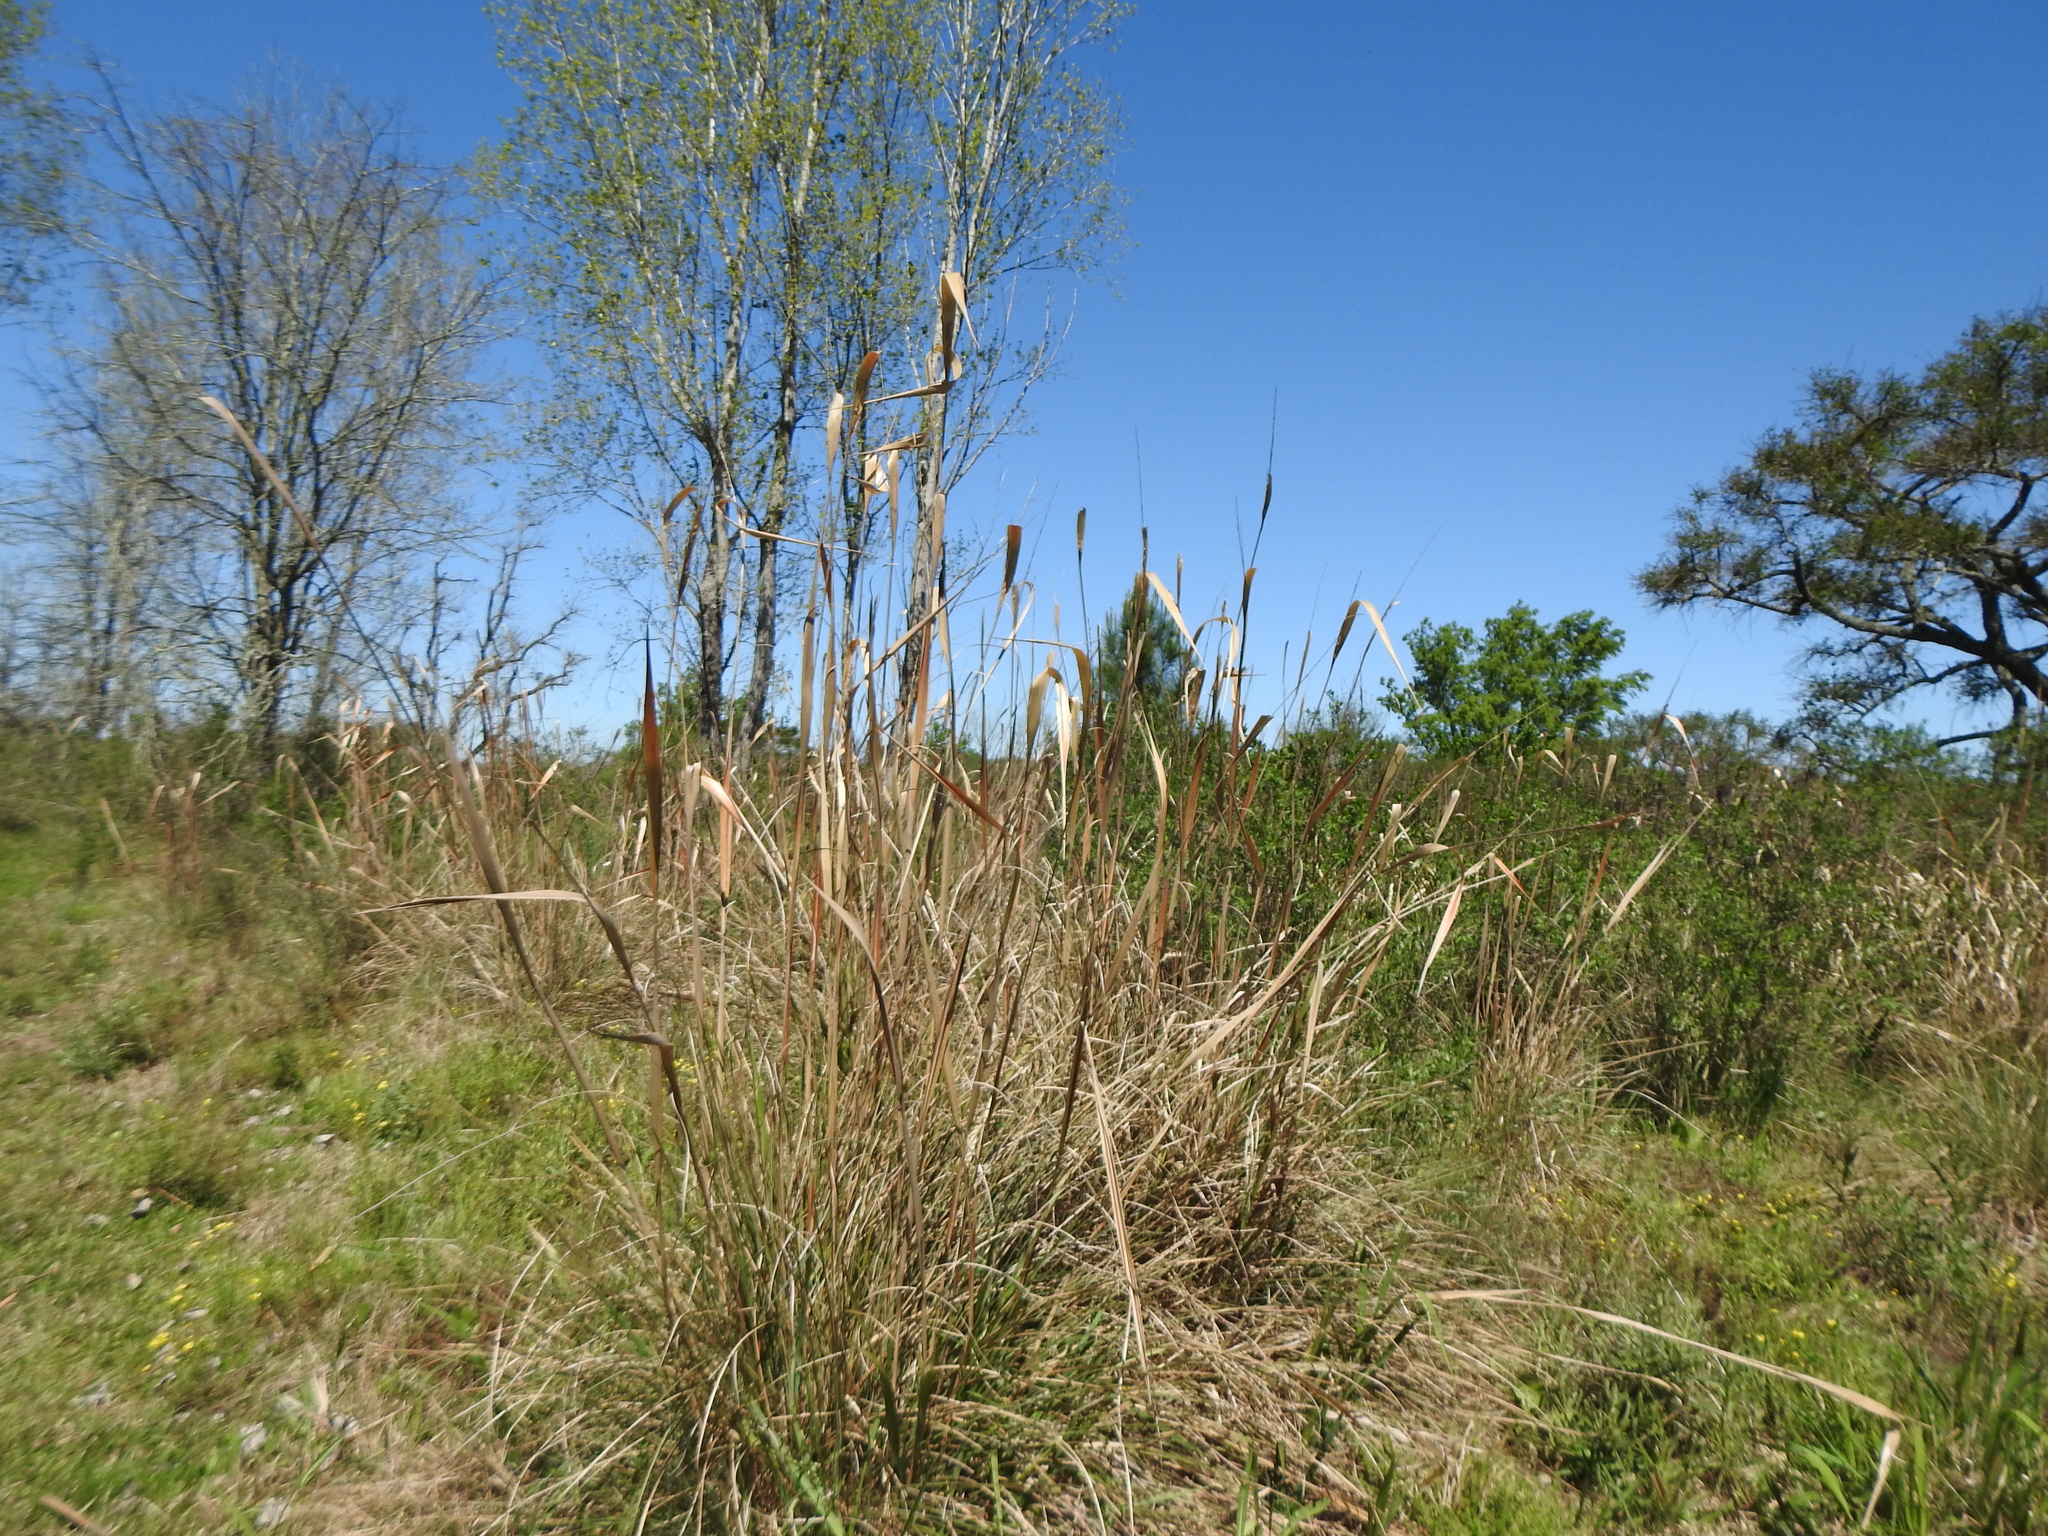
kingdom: Plantae
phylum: Tracheophyta
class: Liliopsida
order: Poales
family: Poaceae
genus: Saccharum
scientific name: Saccharum angustifolium
